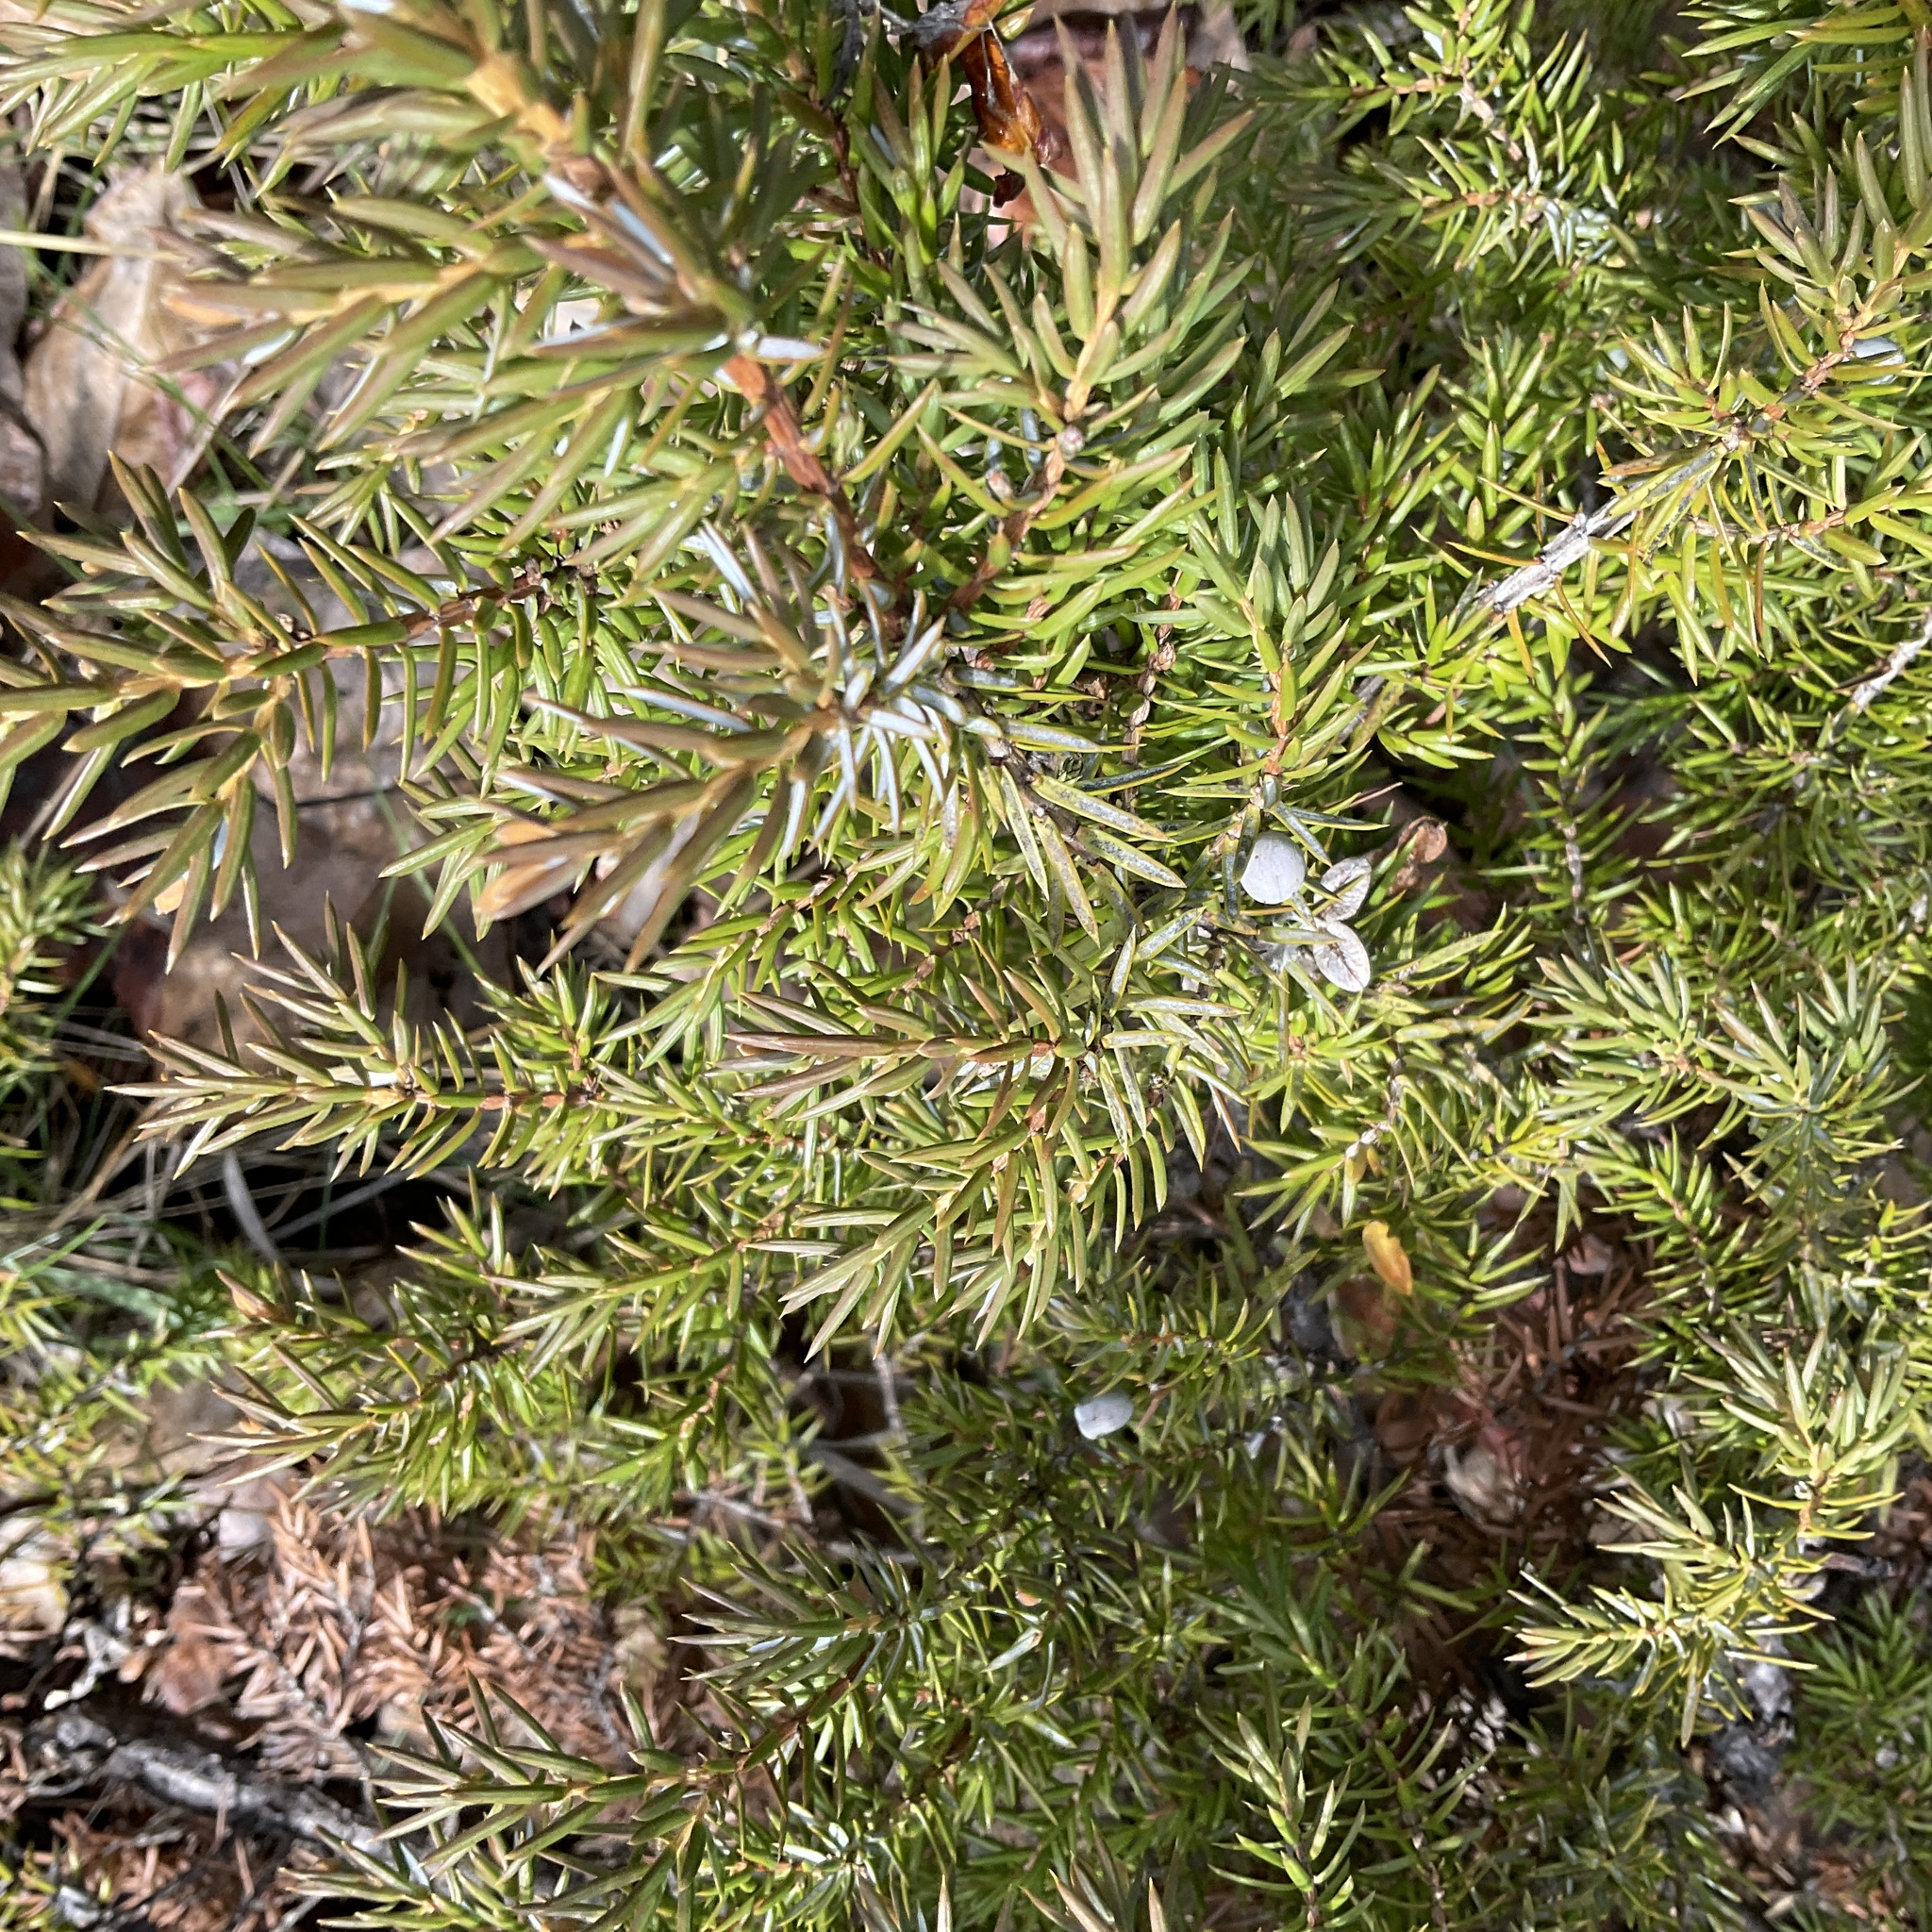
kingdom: Plantae
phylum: Tracheophyta
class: Pinopsida
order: Pinales
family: Cupressaceae
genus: Juniperus
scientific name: Juniperus communis
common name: Common juniper
